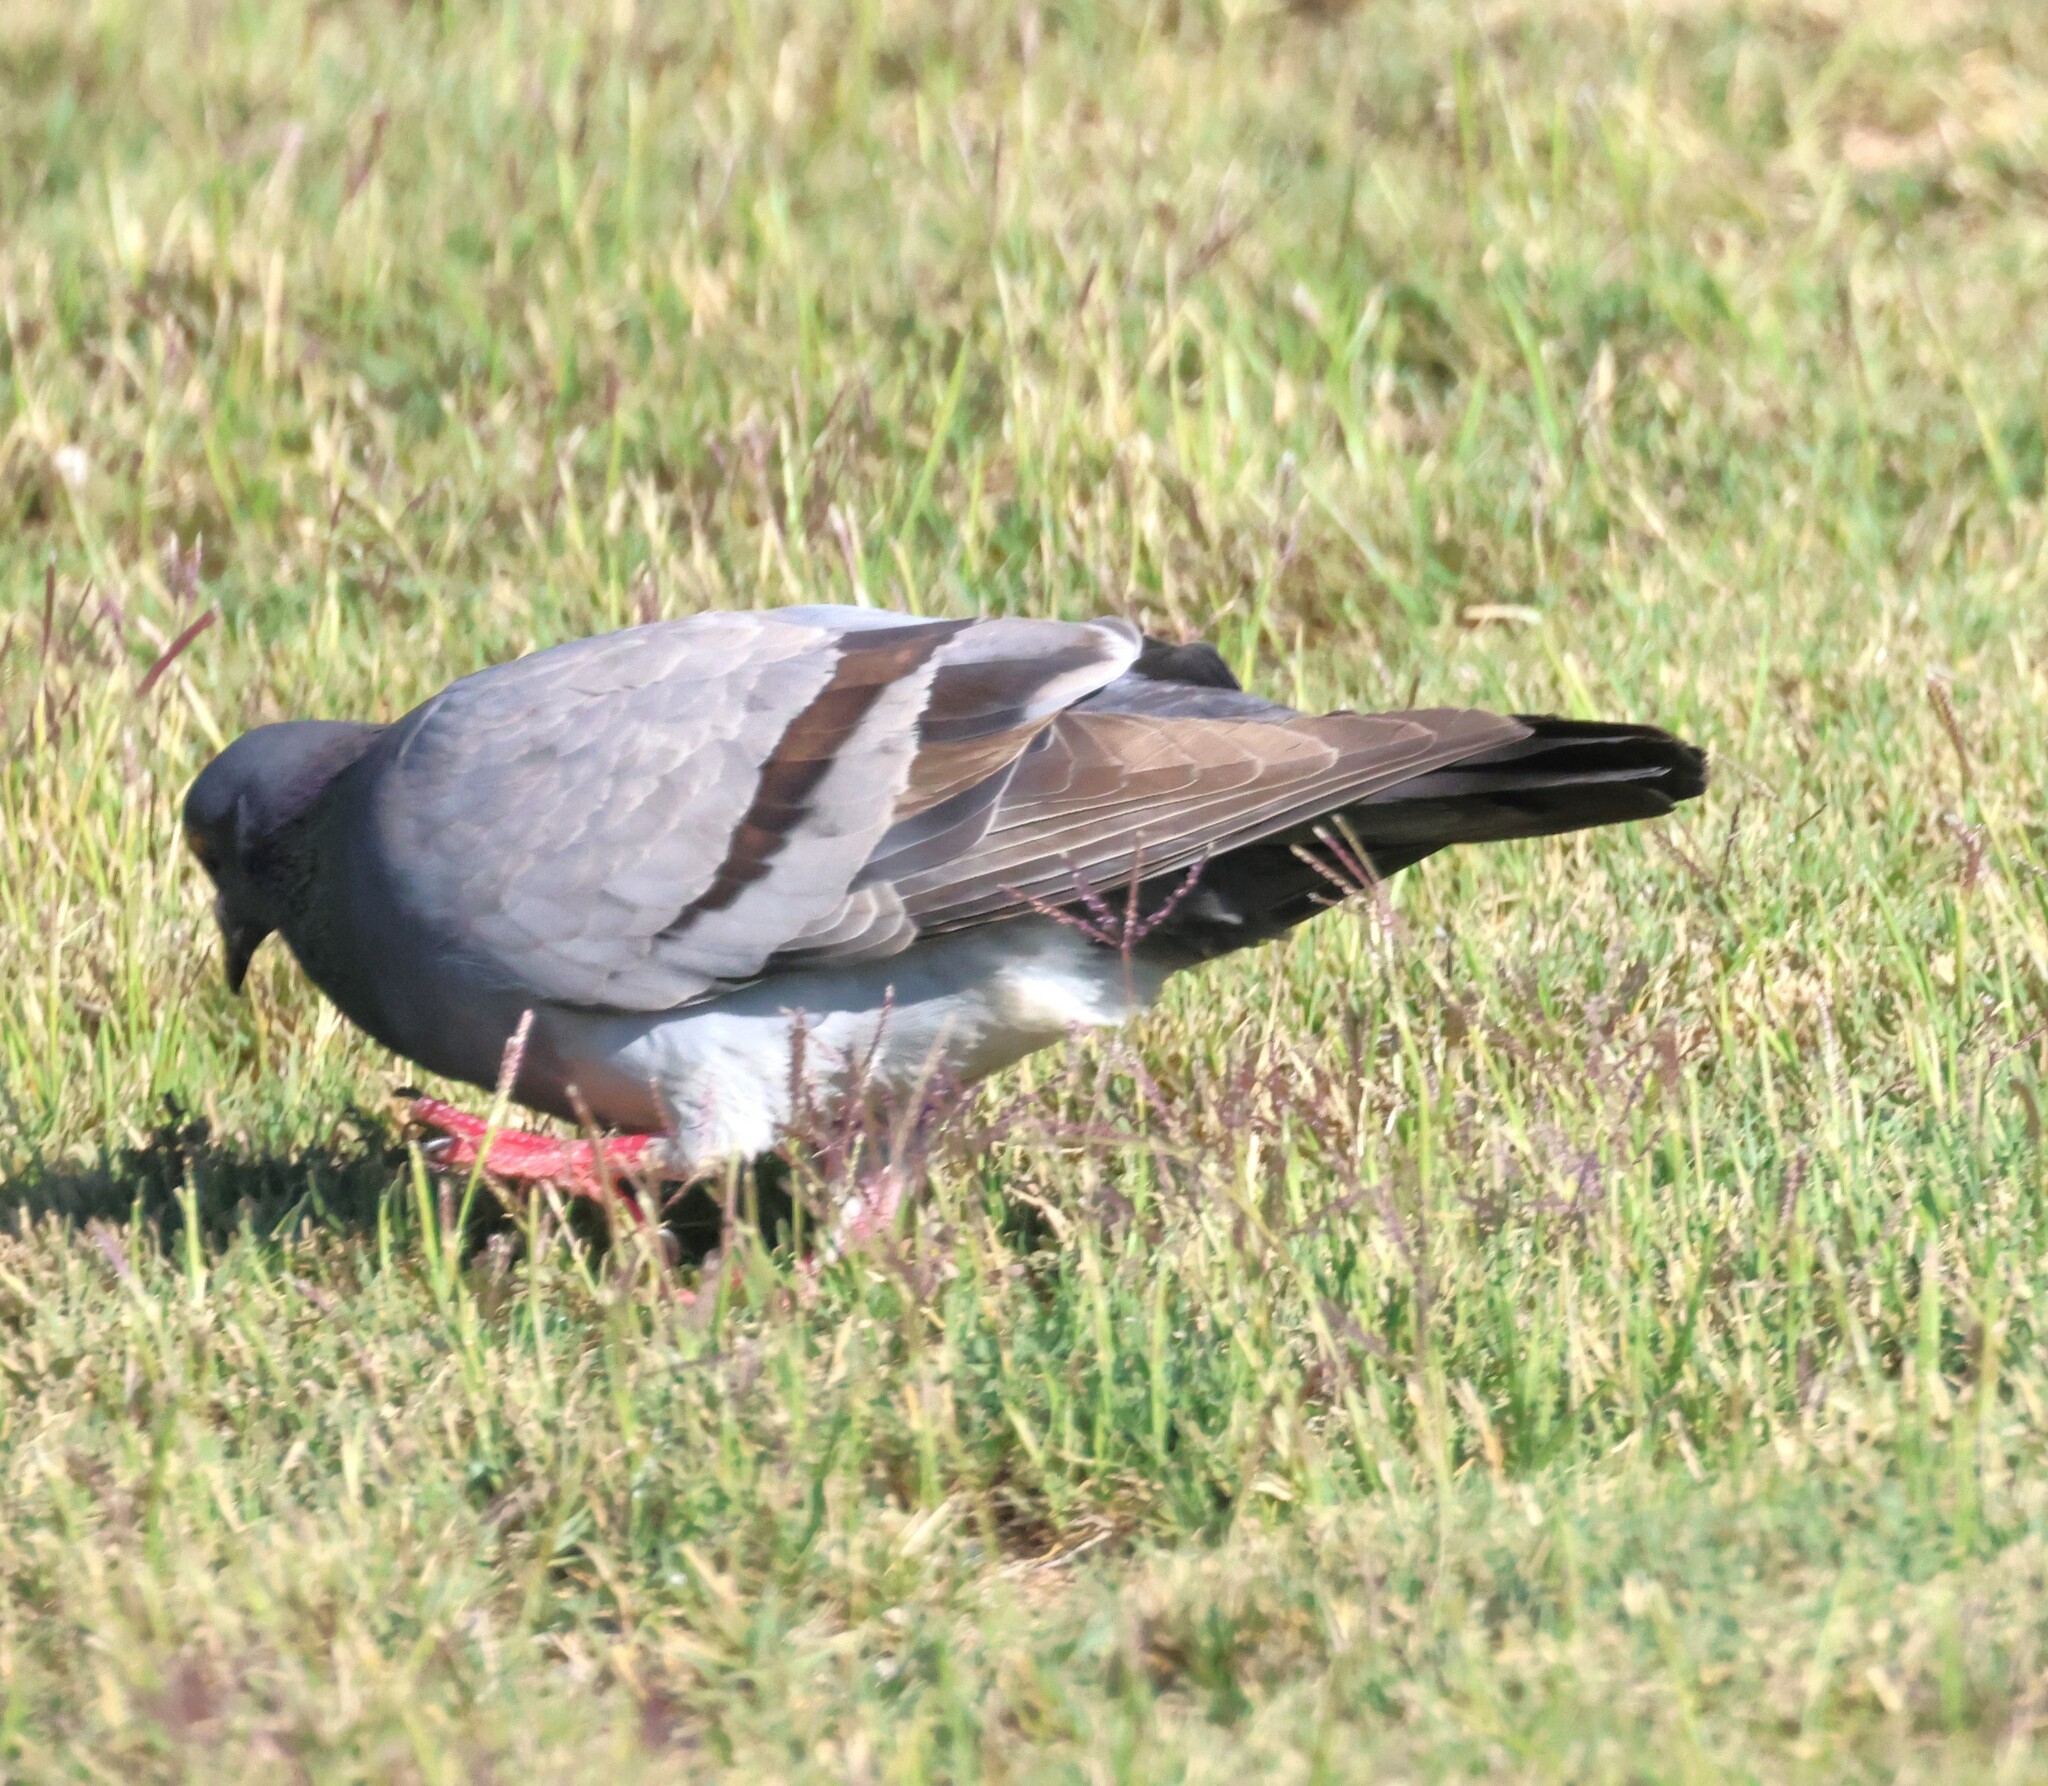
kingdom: Animalia
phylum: Chordata
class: Aves
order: Columbiformes
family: Columbidae
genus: Columba
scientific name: Columba livia
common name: Rock pigeon
